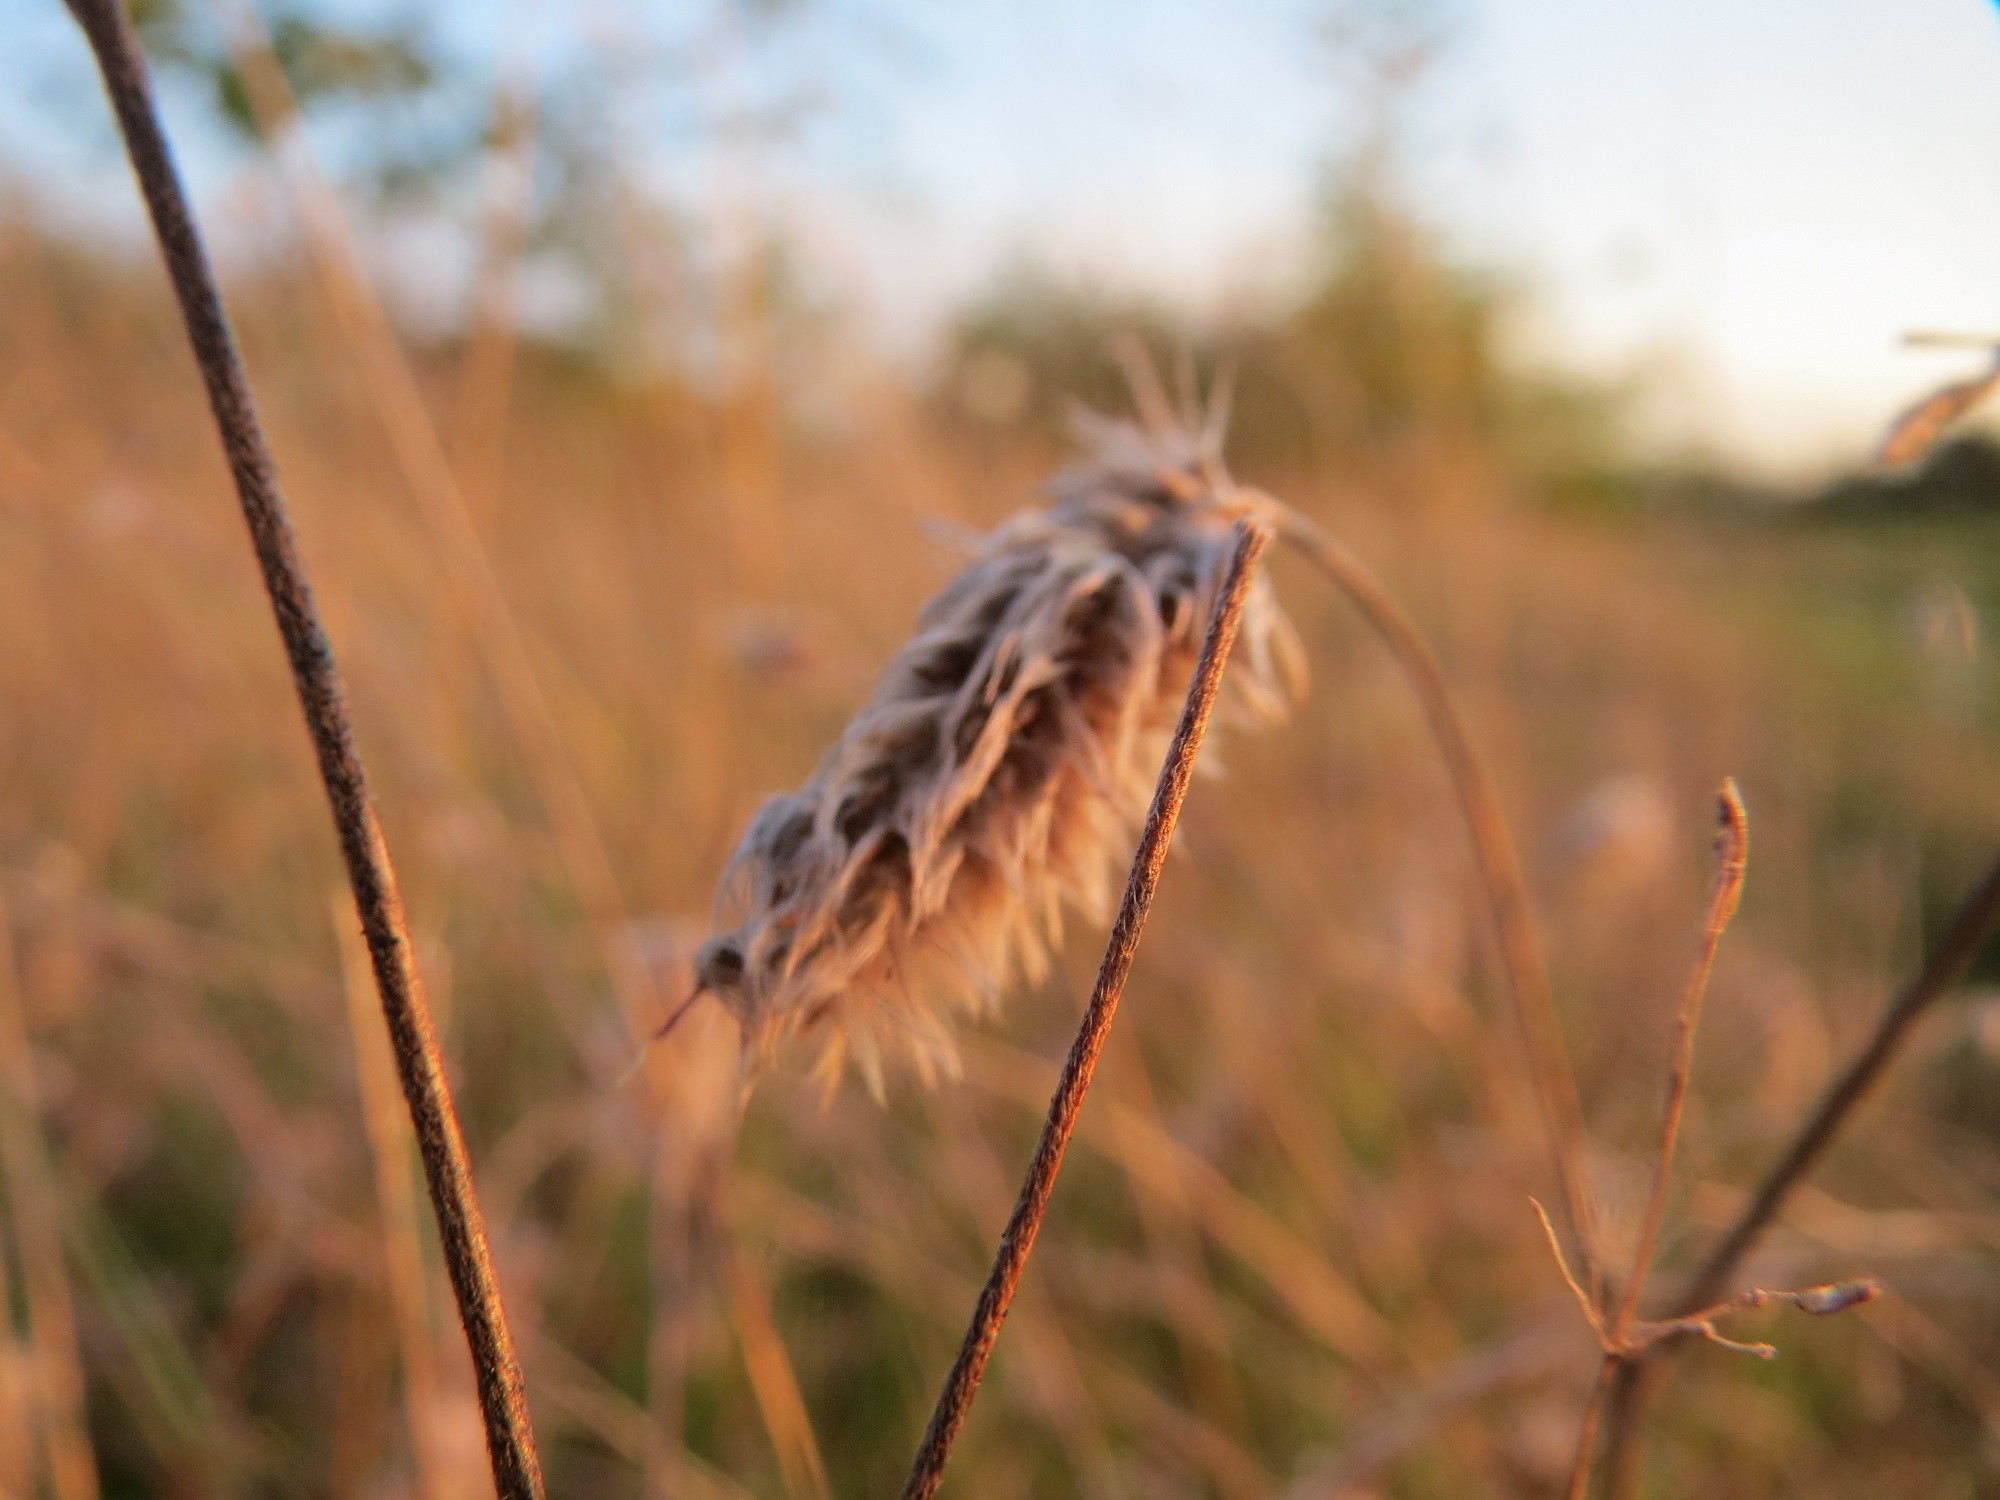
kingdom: Plantae
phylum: Tracheophyta
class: Magnoliopsida
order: Fabales
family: Fabaceae
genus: Trifolium
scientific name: Trifolium arvense
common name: Hare's-foot clover
